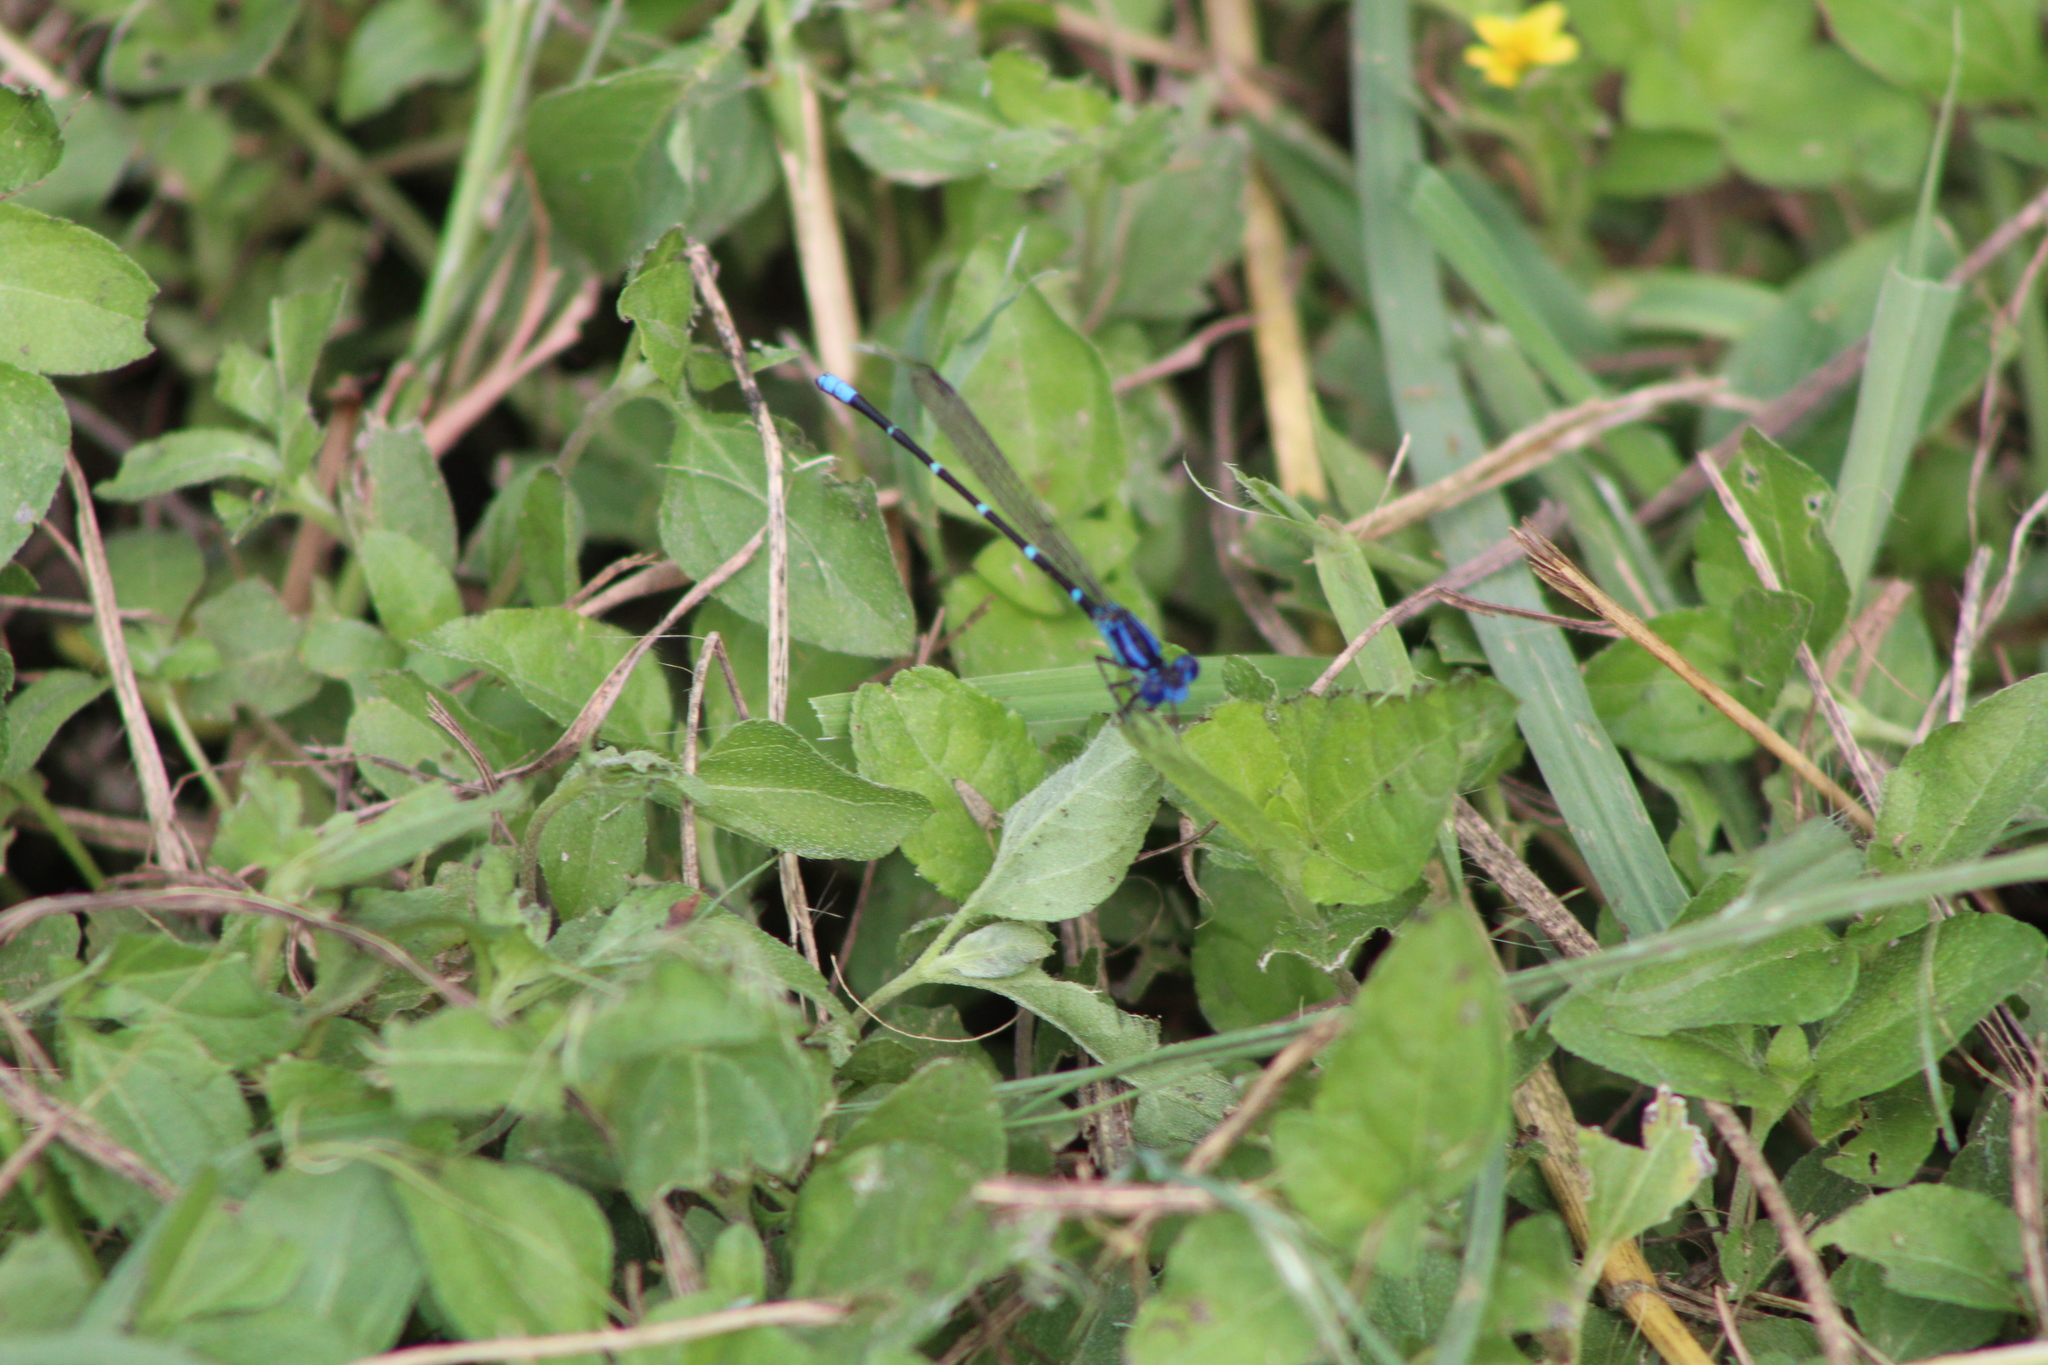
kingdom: Animalia
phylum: Arthropoda
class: Insecta
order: Odonata
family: Coenagrionidae
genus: Argia
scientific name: Argia sedula
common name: Blue-ringed dancer
